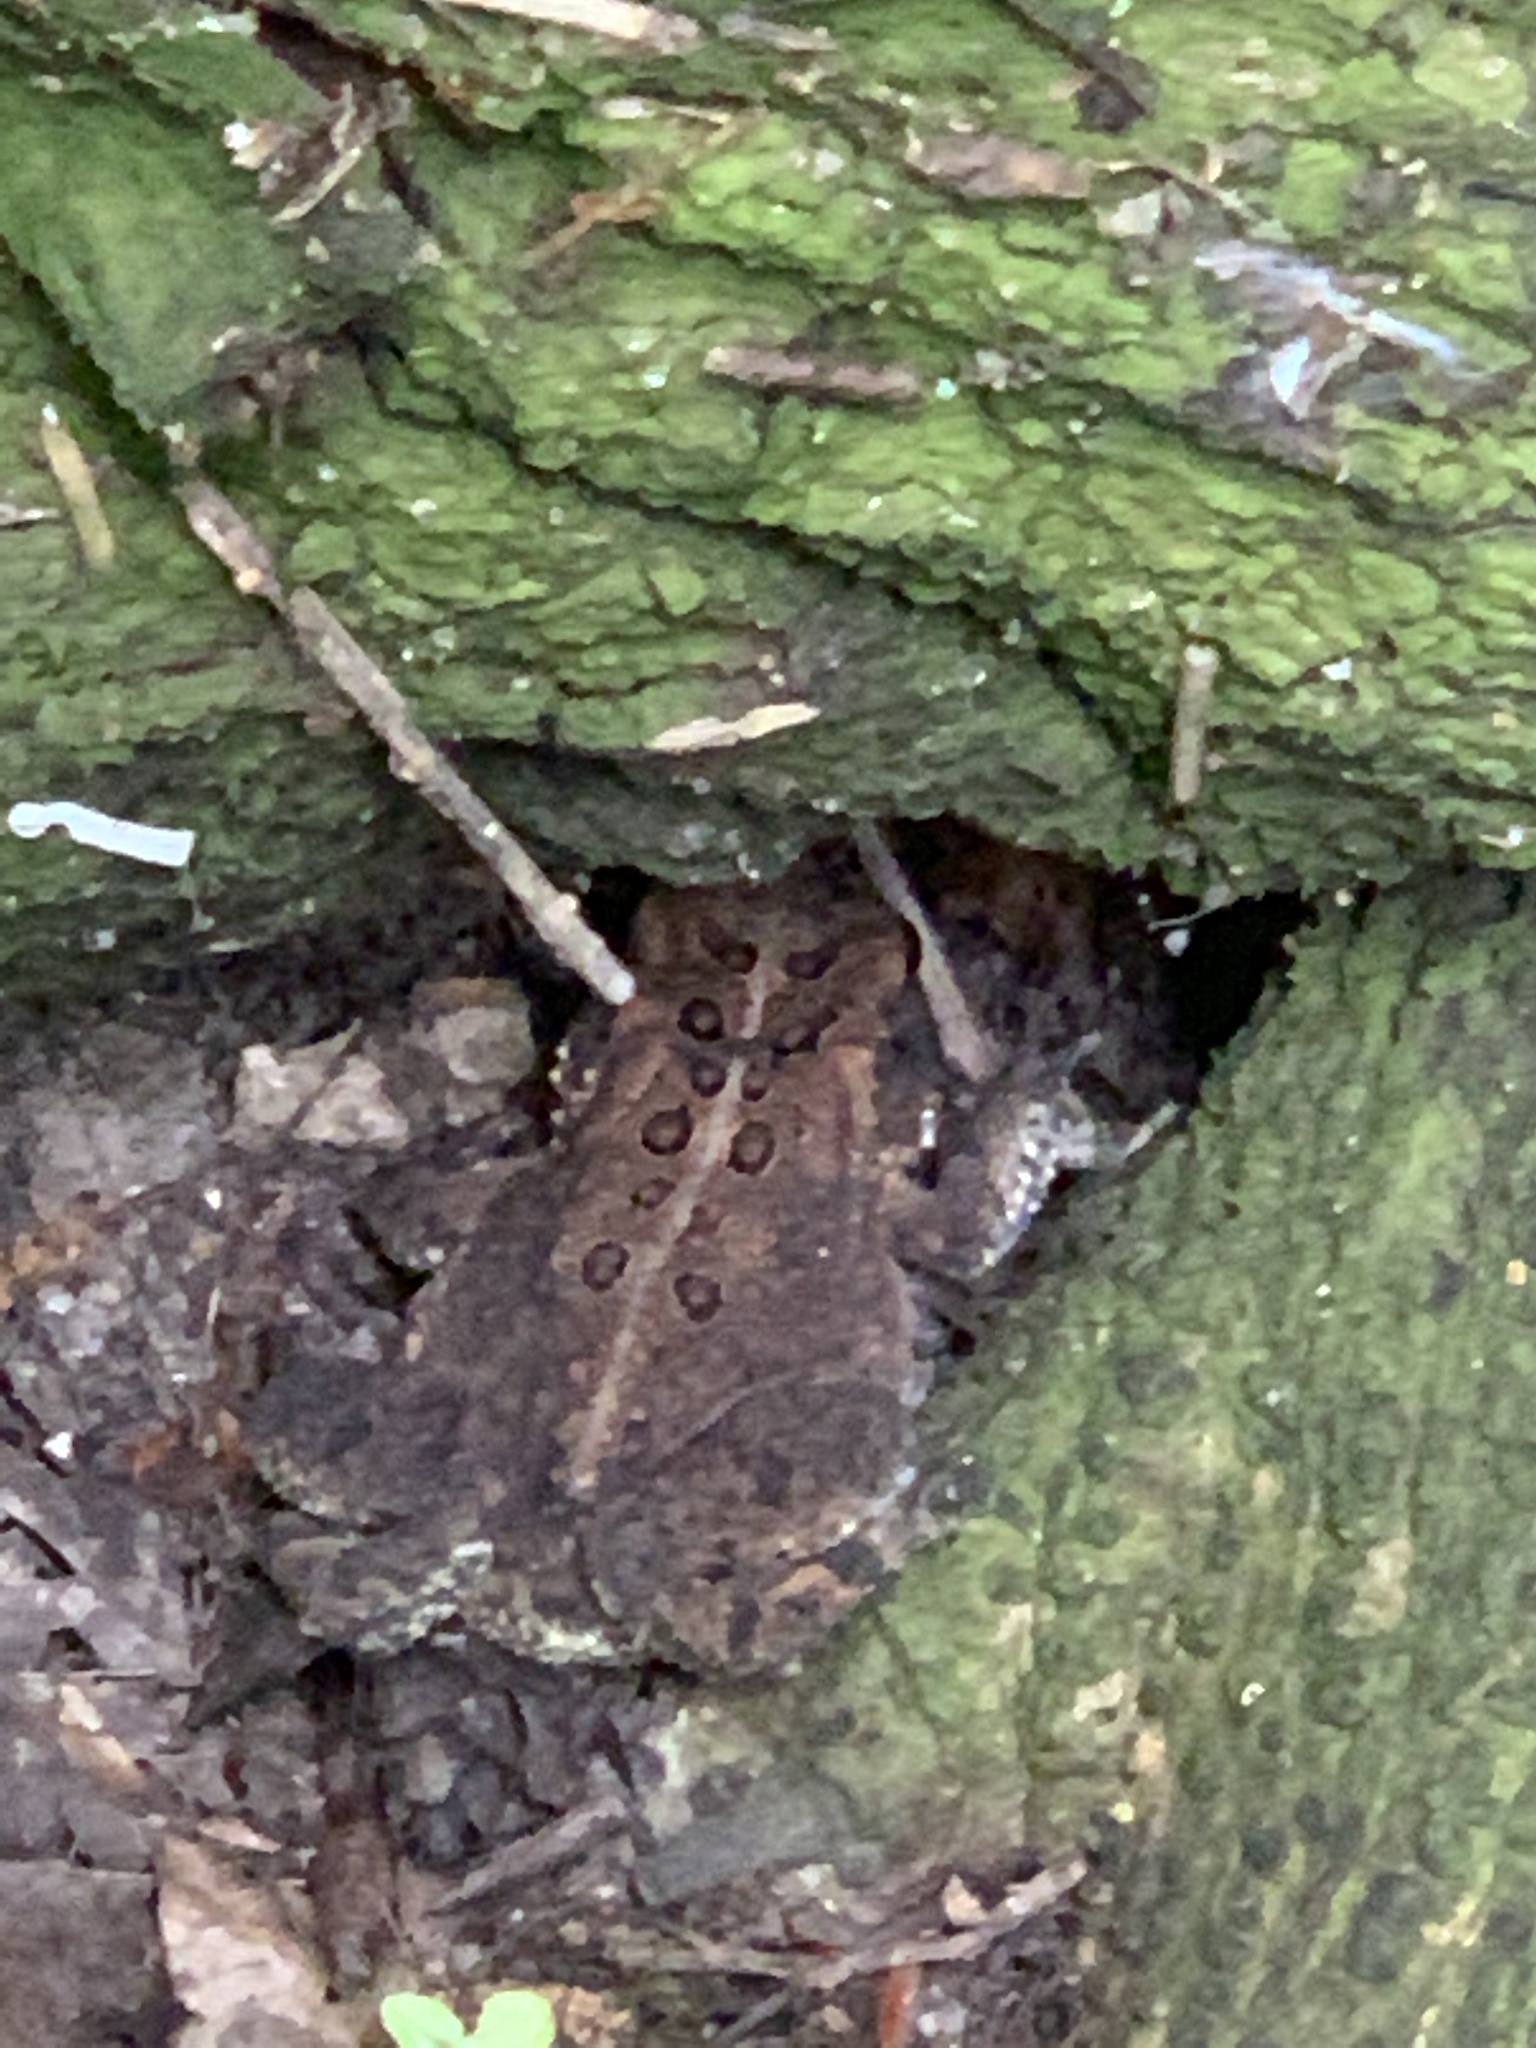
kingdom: Animalia
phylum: Chordata
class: Amphibia
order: Anura
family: Bufonidae
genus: Anaxyrus
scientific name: Anaxyrus americanus
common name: American toad
